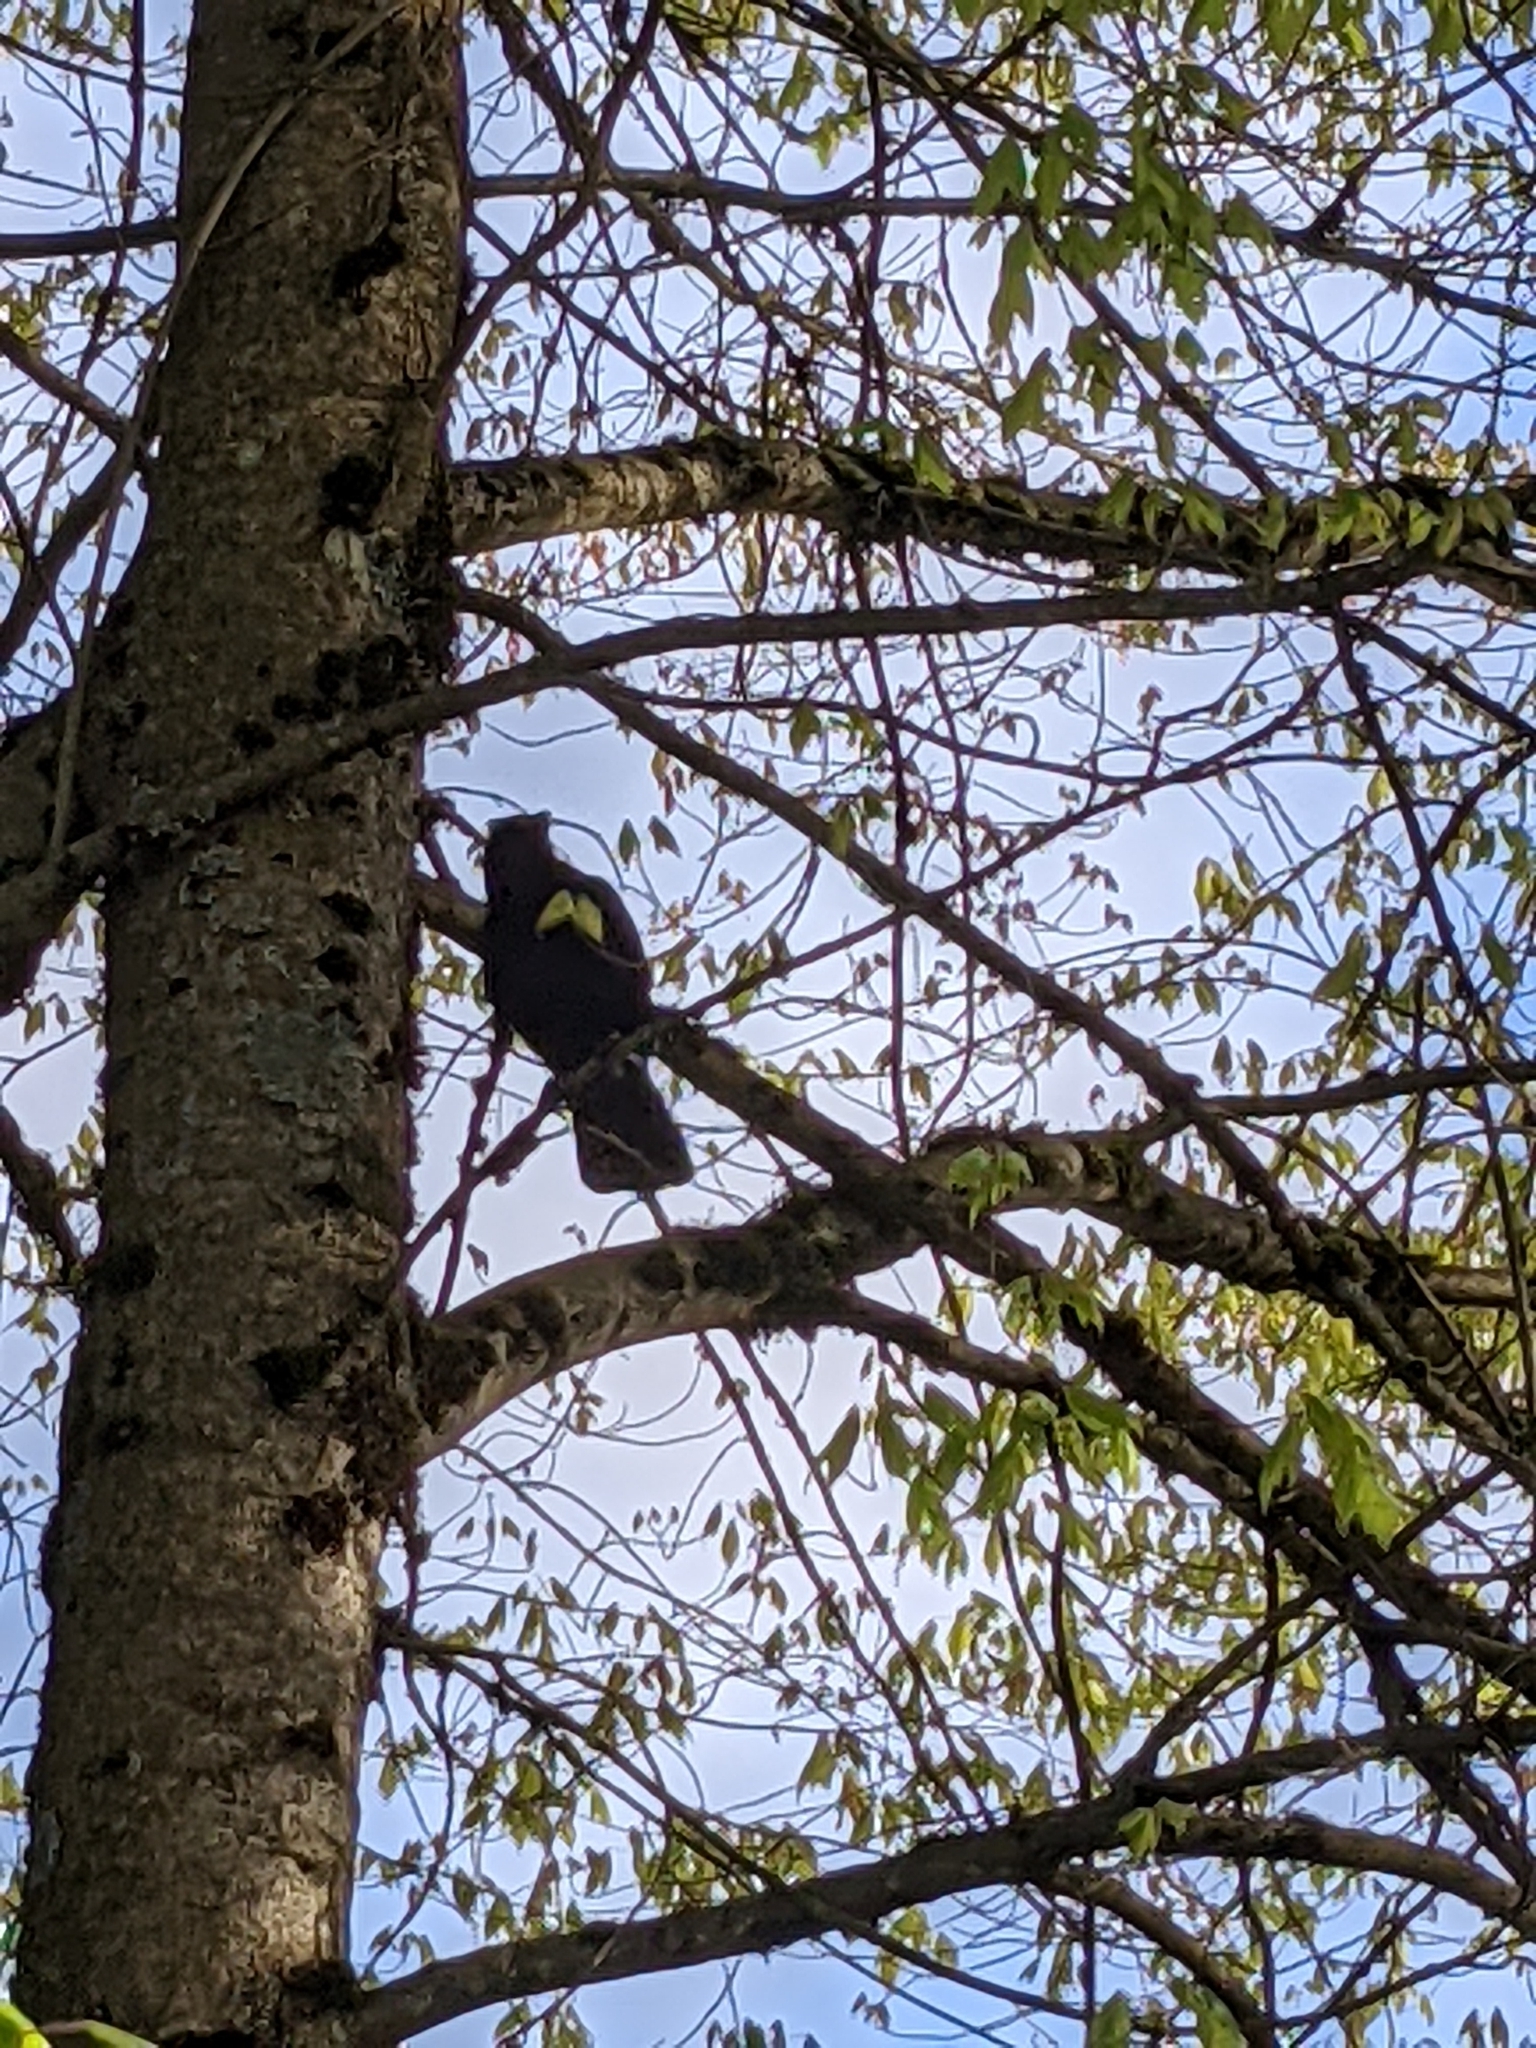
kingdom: Animalia
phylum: Chordata
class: Aves
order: Passeriformes
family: Corvidae
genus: Corvus
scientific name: Corvus brachyrhynchos
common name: American crow
